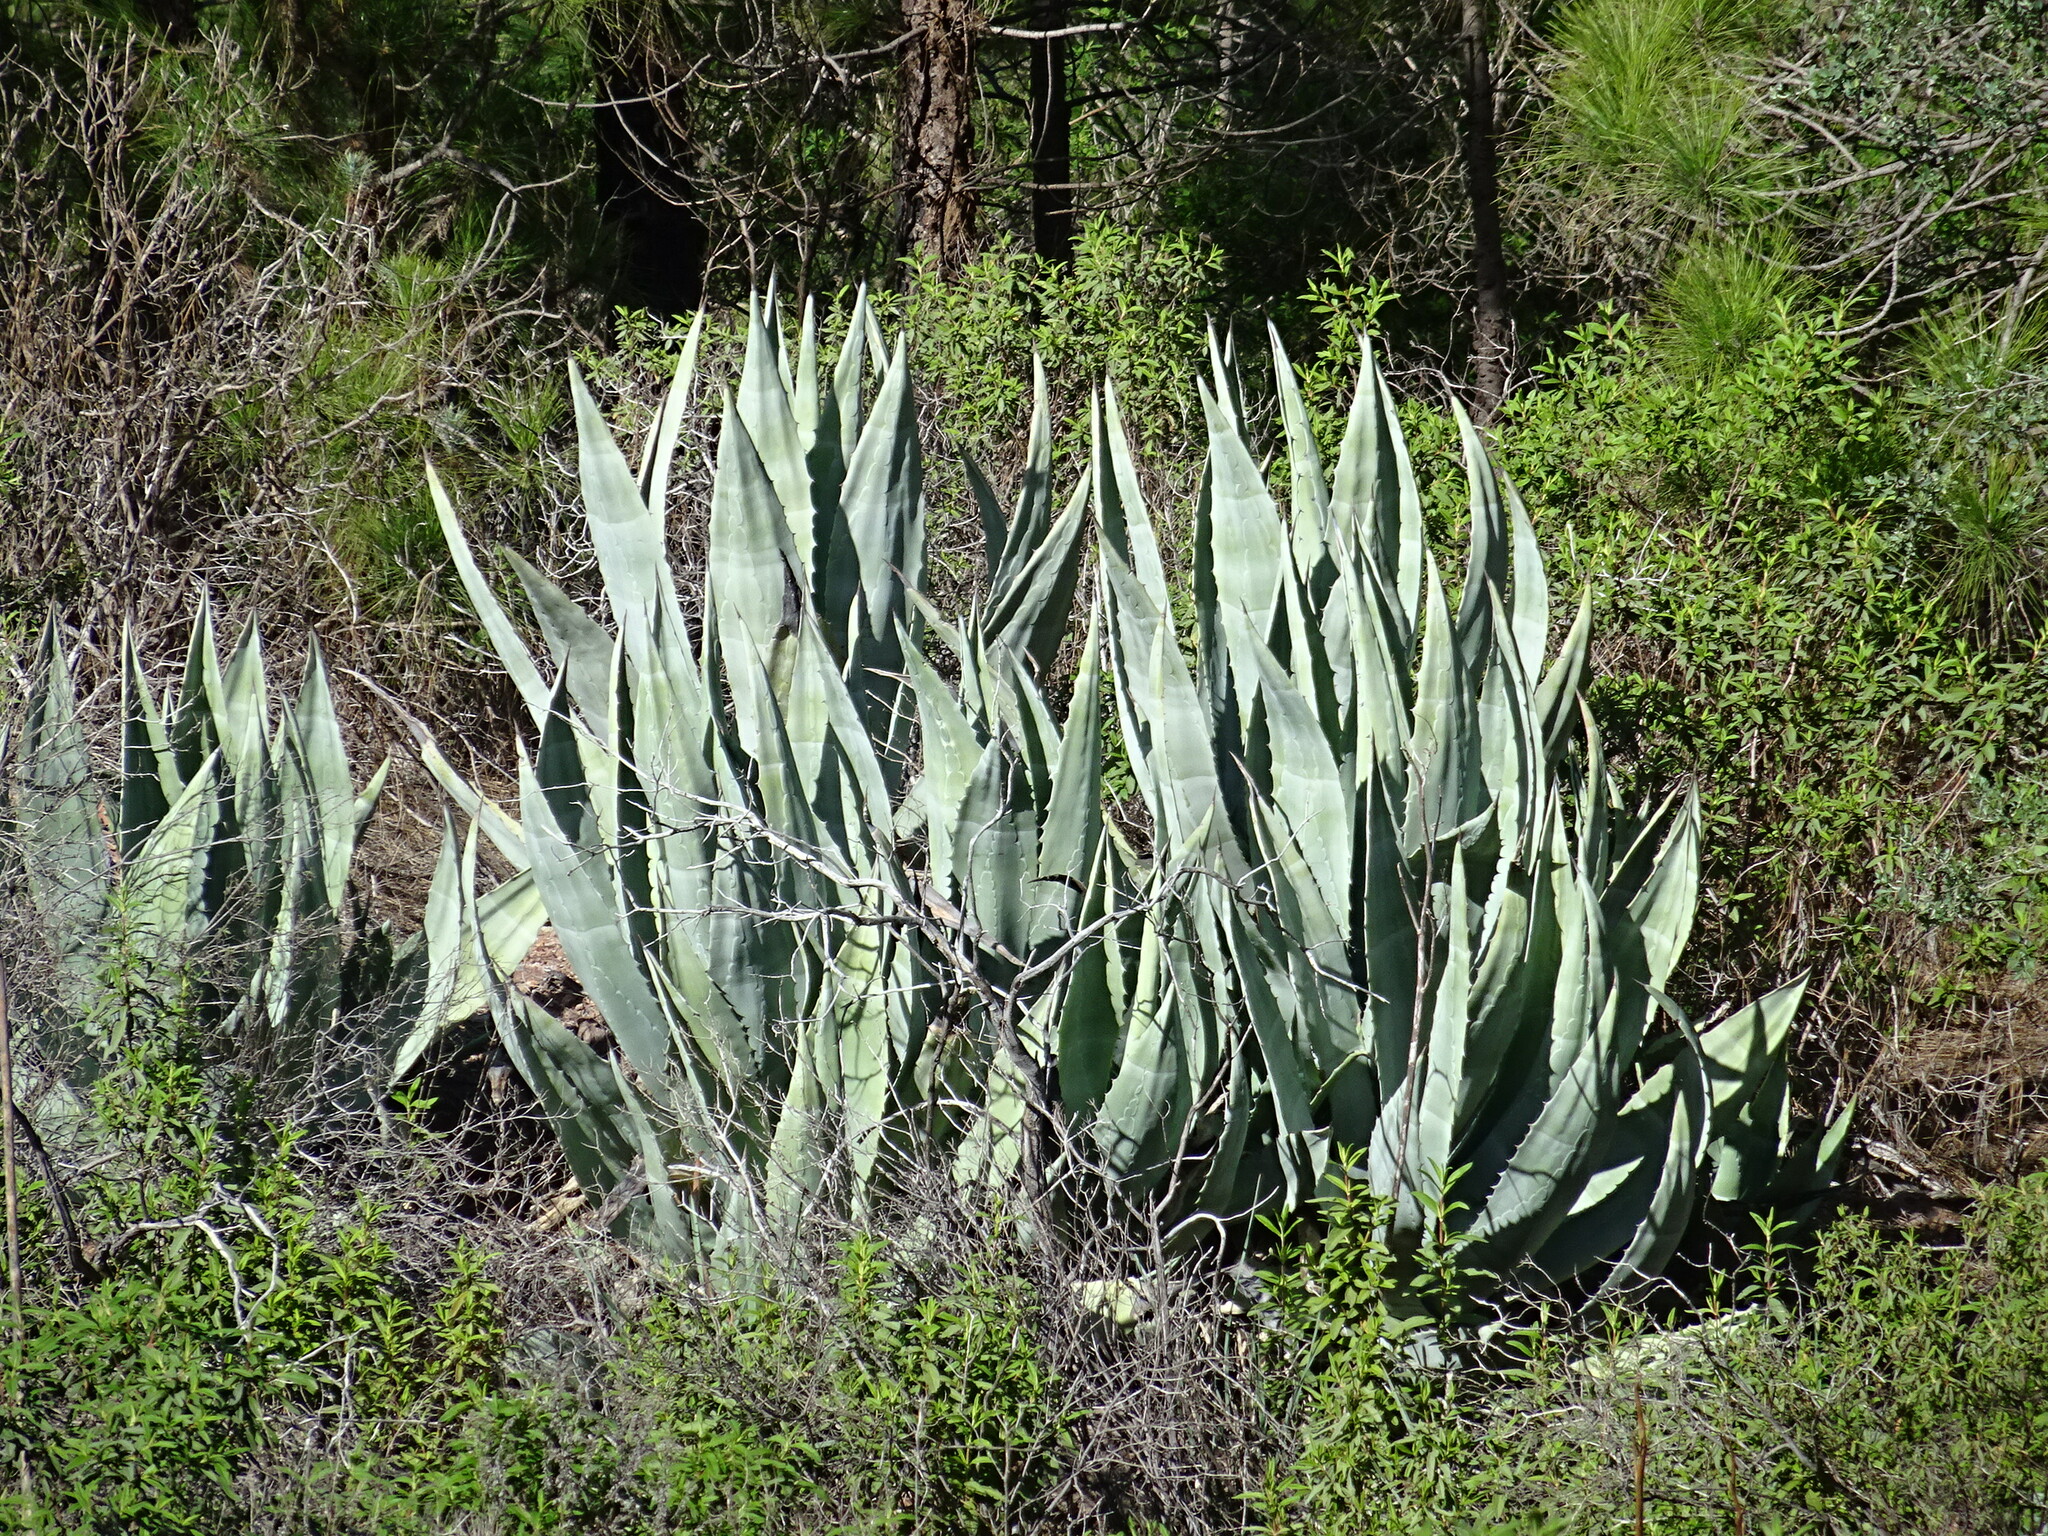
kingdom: Plantae
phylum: Tracheophyta
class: Liliopsida
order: Asparagales
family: Asparagaceae
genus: Agave
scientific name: Agave americana
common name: Centuryplant
